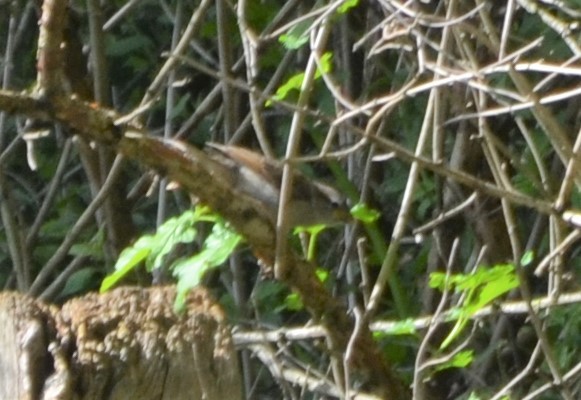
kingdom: Animalia
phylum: Chordata
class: Aves
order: Passeriformes
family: Passeridae
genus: Passer
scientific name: Passer domesticus
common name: House sparrow
